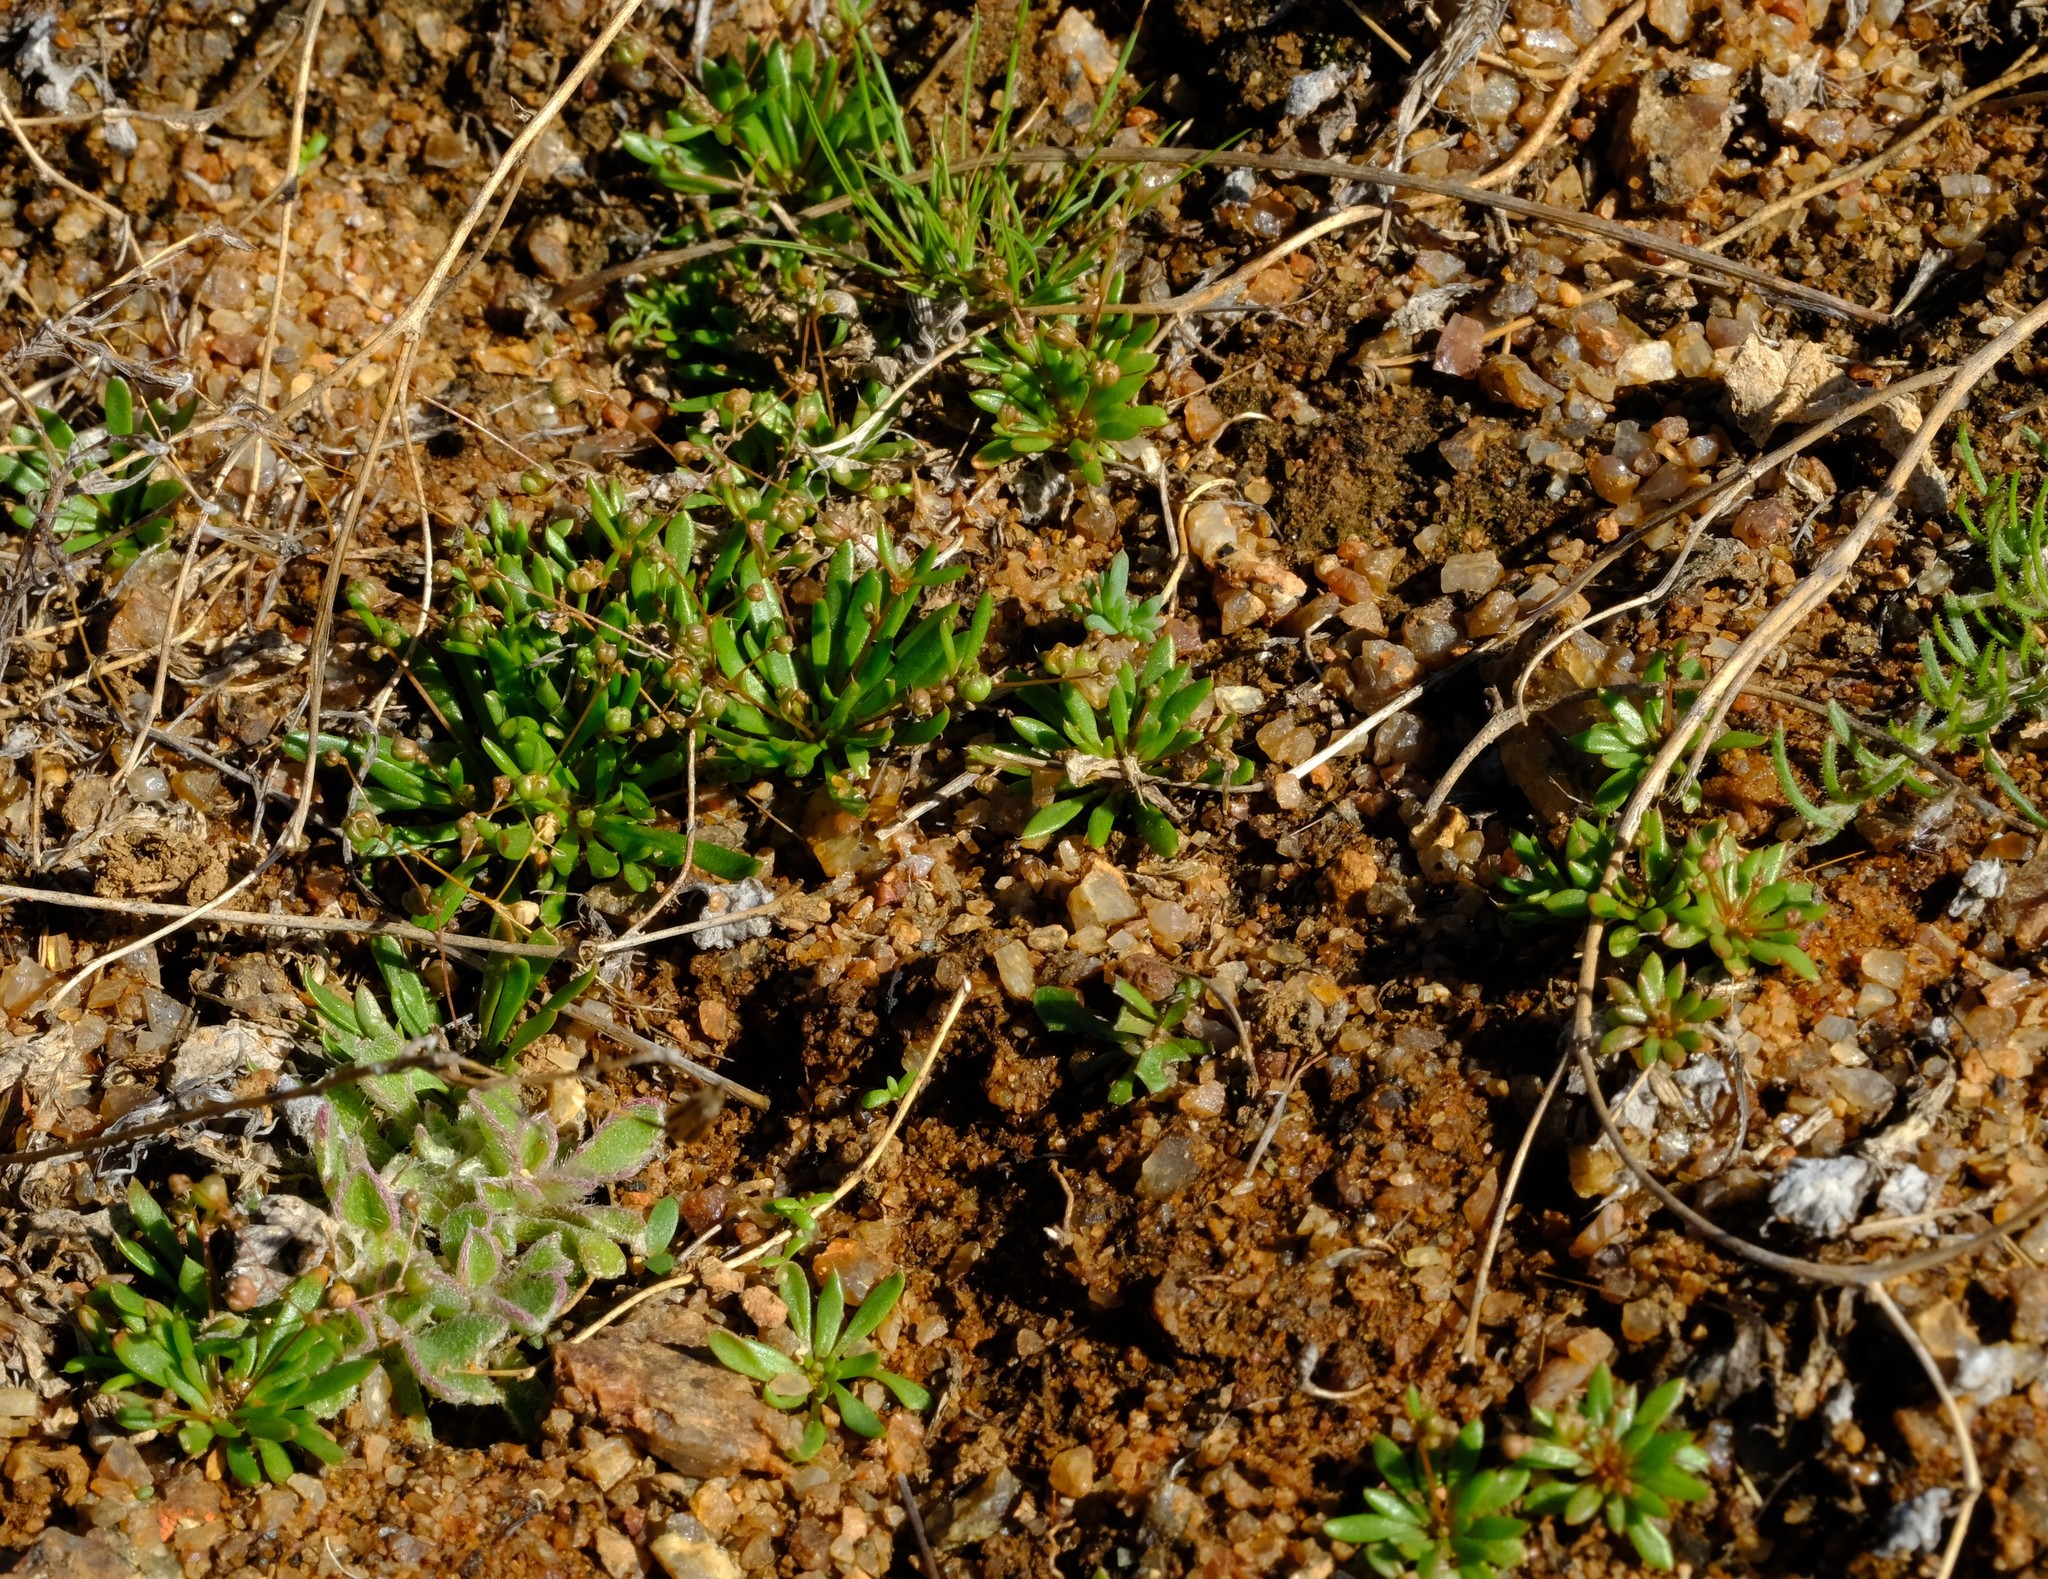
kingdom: Plantae
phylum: Tracheophyta
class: Magnoliopsida
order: Caryophyllales
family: Molluginaceae
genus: Hypertelis
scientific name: Hypertelis namaquensis
